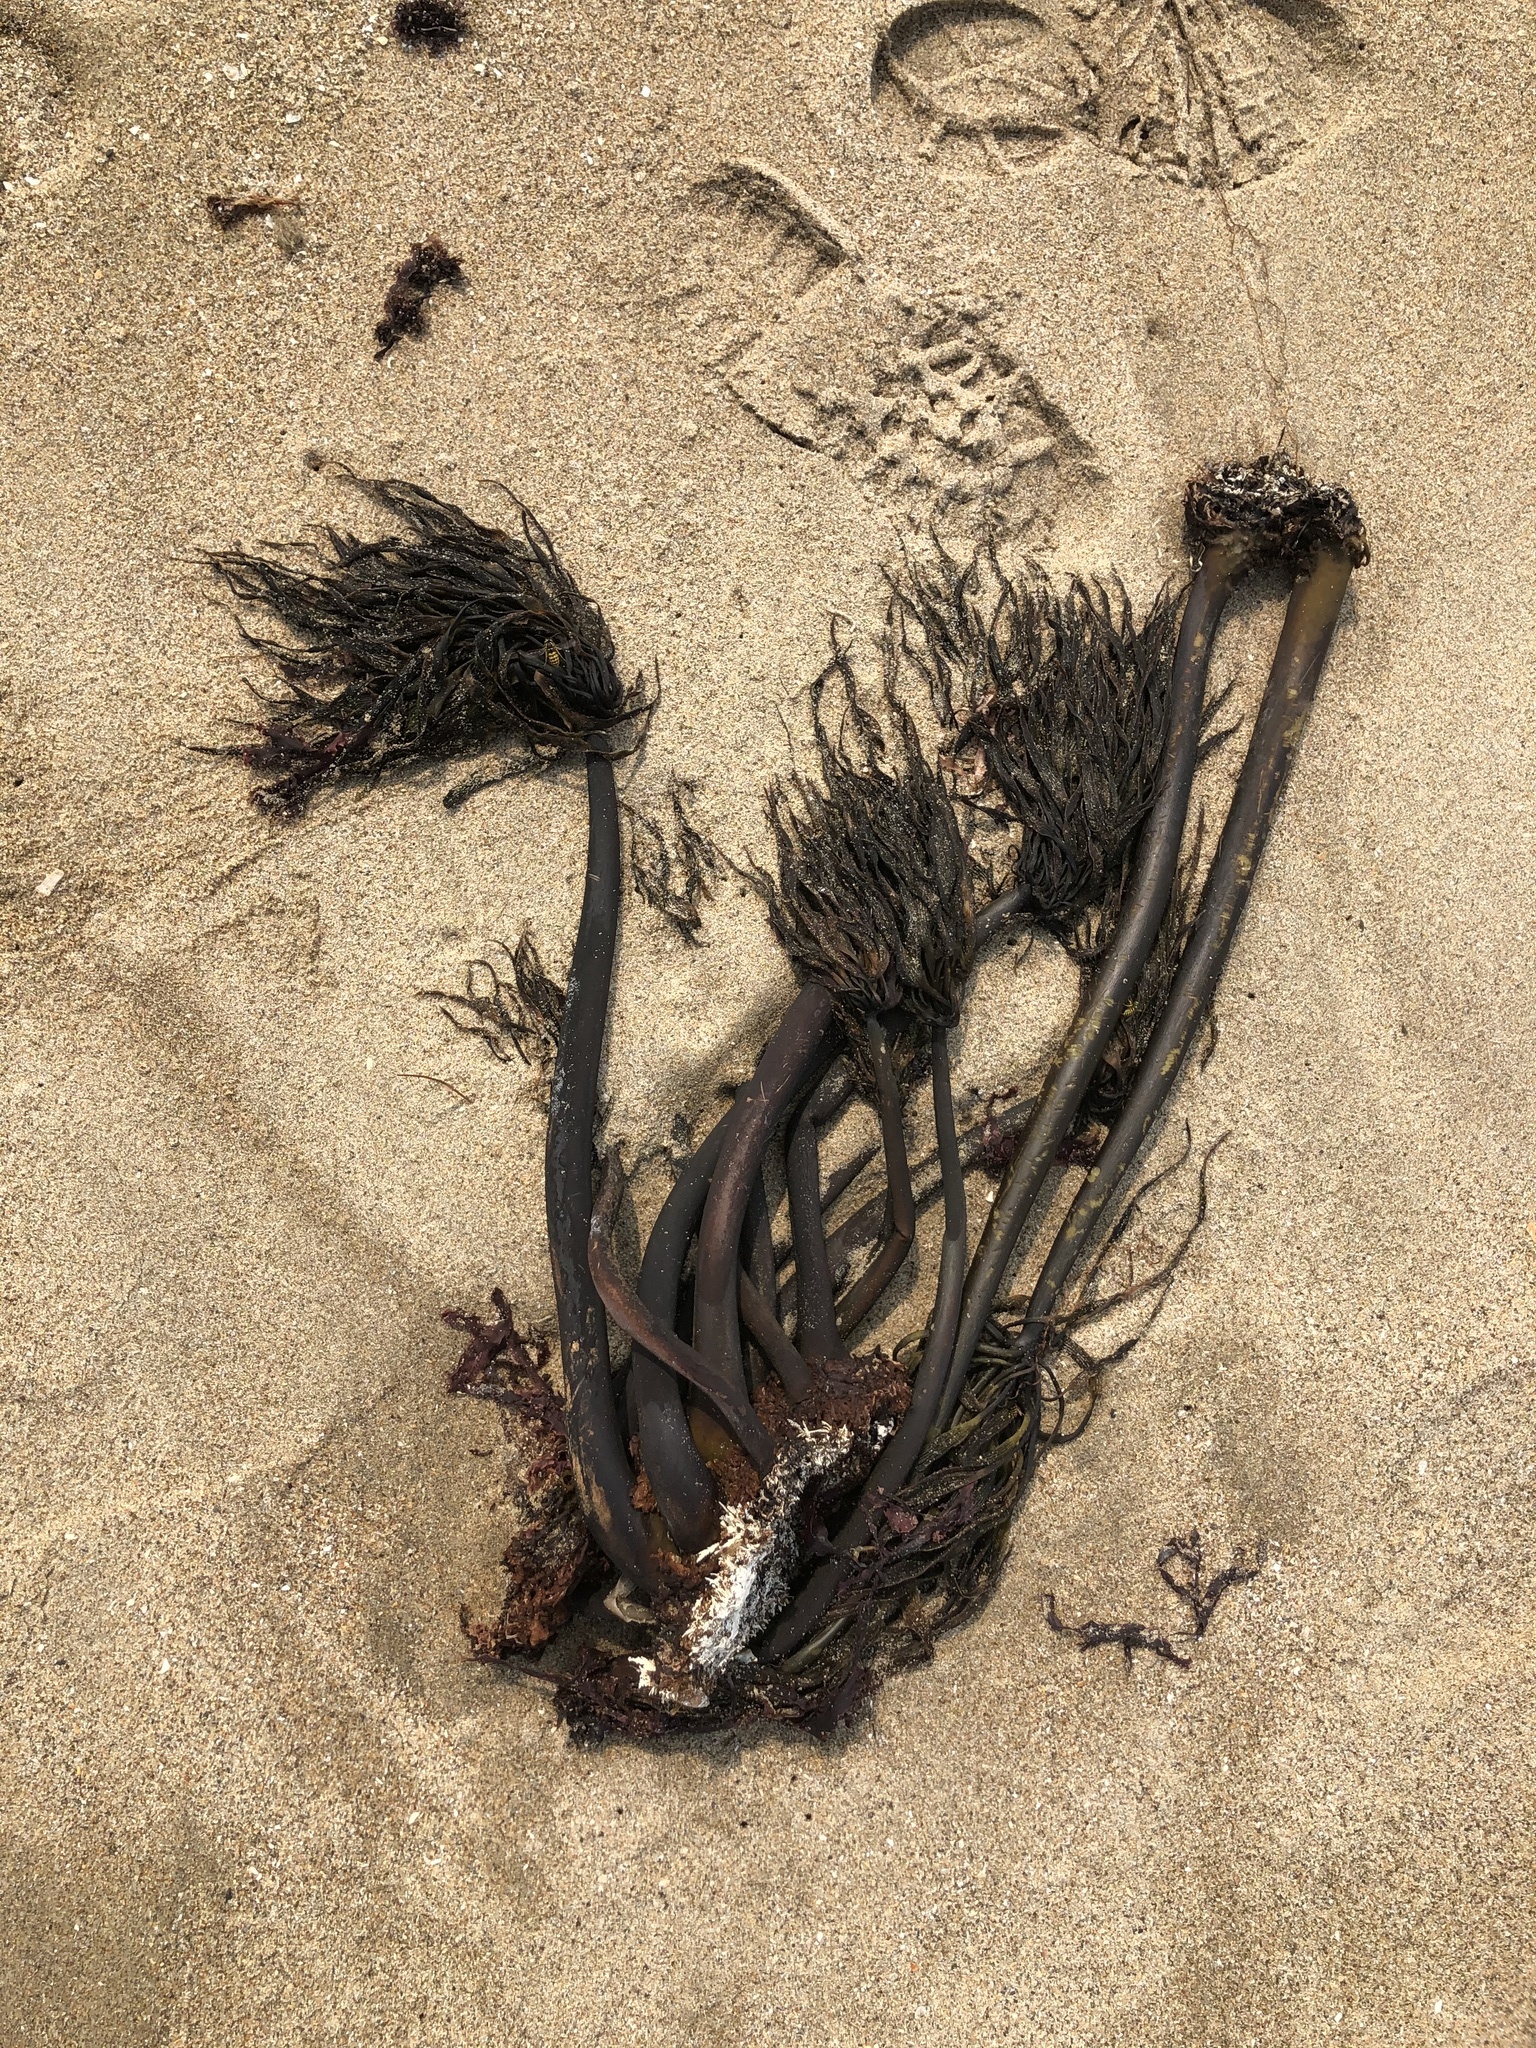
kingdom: Chromista
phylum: Ochrophyta
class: Phaeophyceae
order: Laminariales
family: Laminariaceae
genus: Postelsia
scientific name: Postelsia palmiformis
